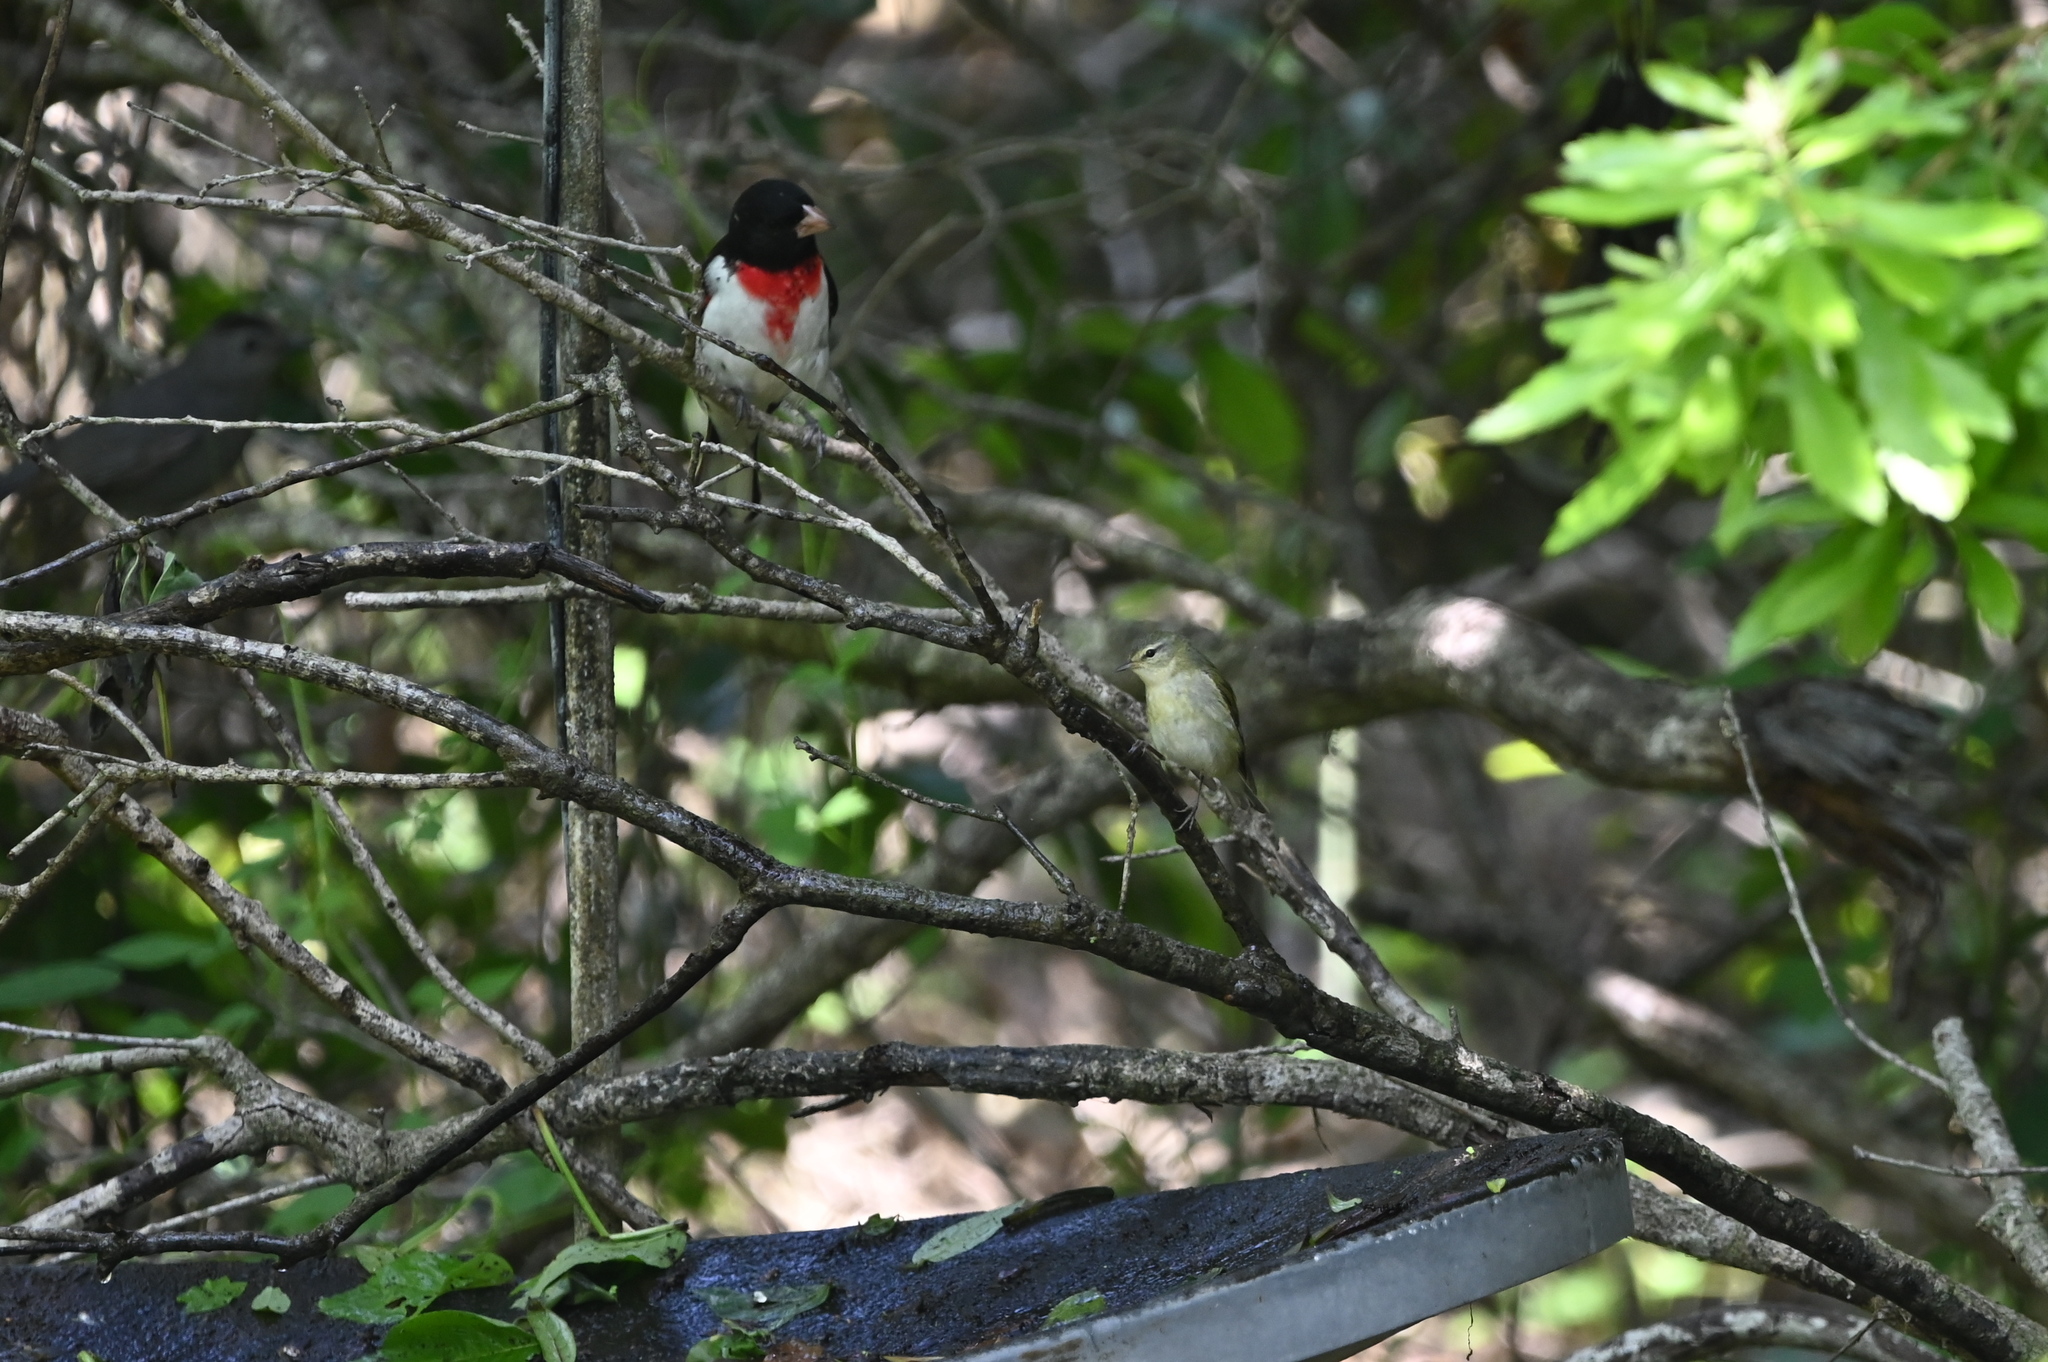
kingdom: Animalia
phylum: Chordata
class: Aves
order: Passeriformes
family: Parulidae
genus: Leiothlypis
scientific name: Leiothlypis peregrina
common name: Tennessee warbler
